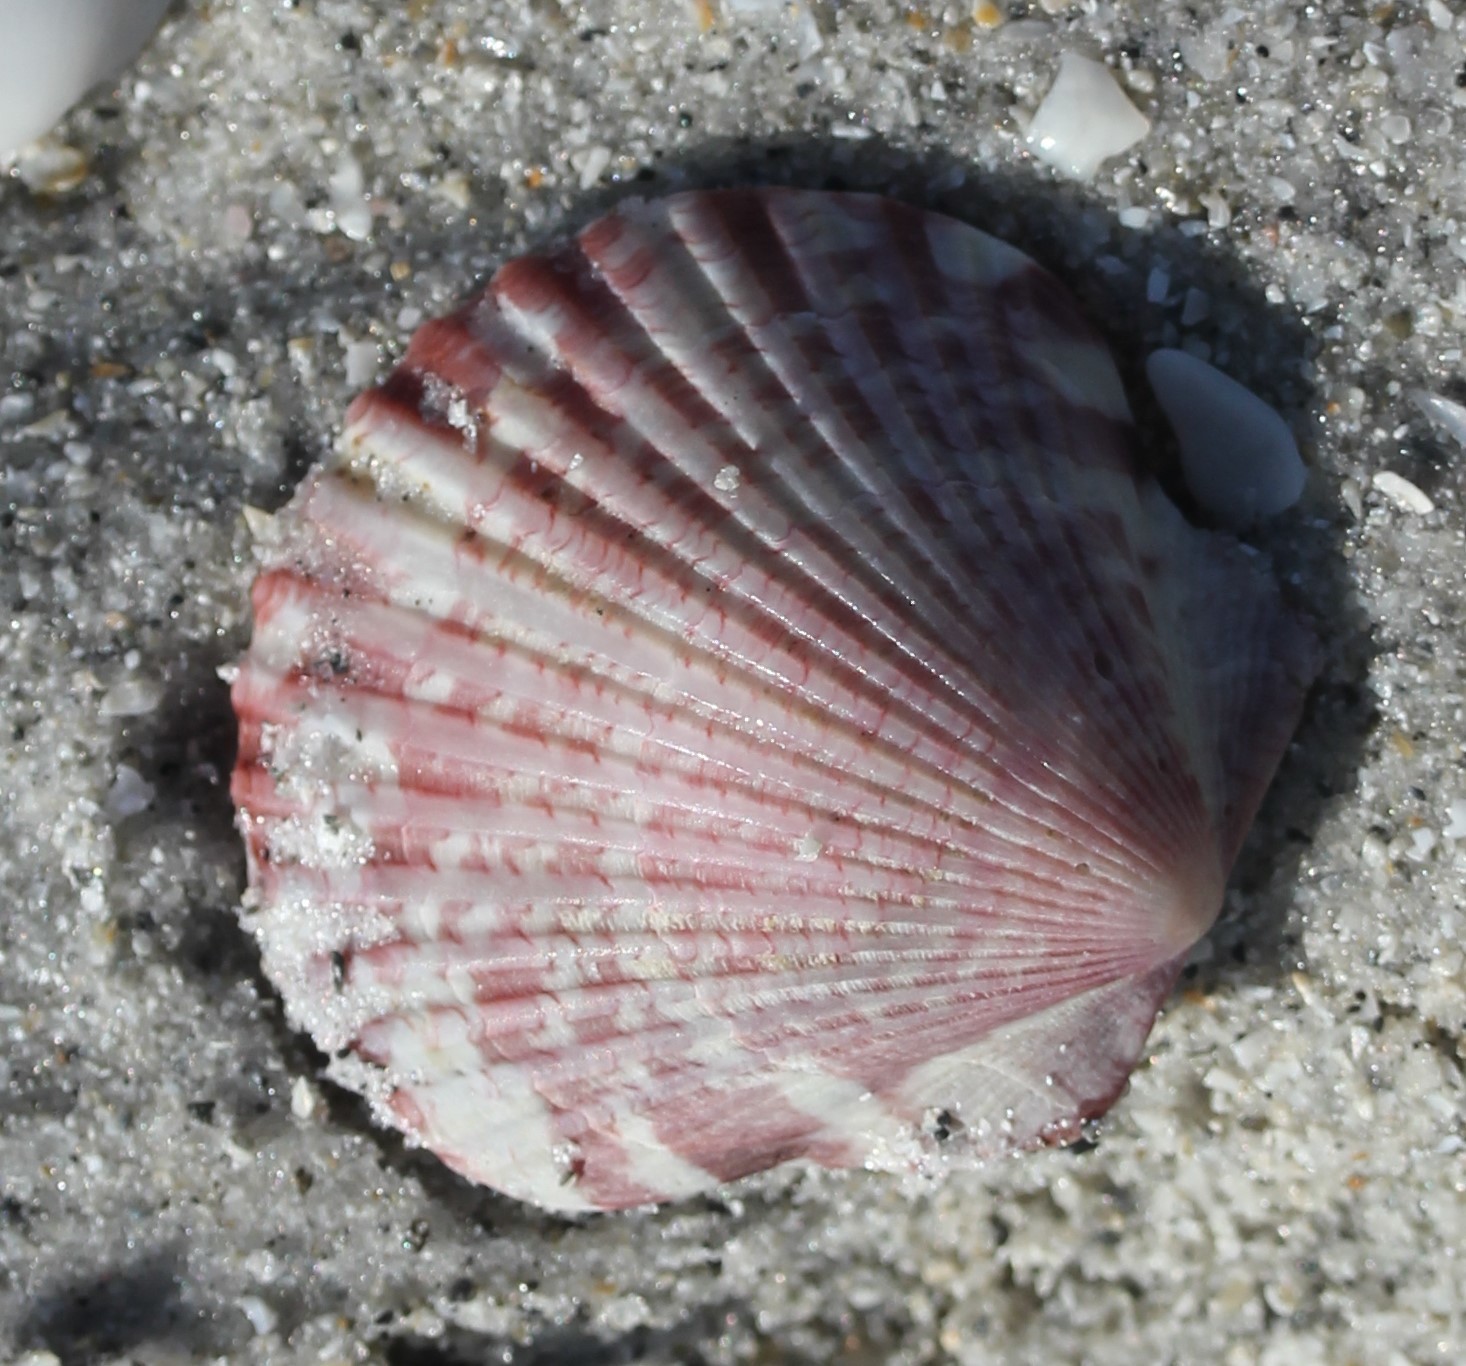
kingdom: Animalia
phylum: Mollusca
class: Bivalvia
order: Pectinida
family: Pectinidae
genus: Argopecten
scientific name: Argopecten gibbus
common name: Atlantic calico scallop
